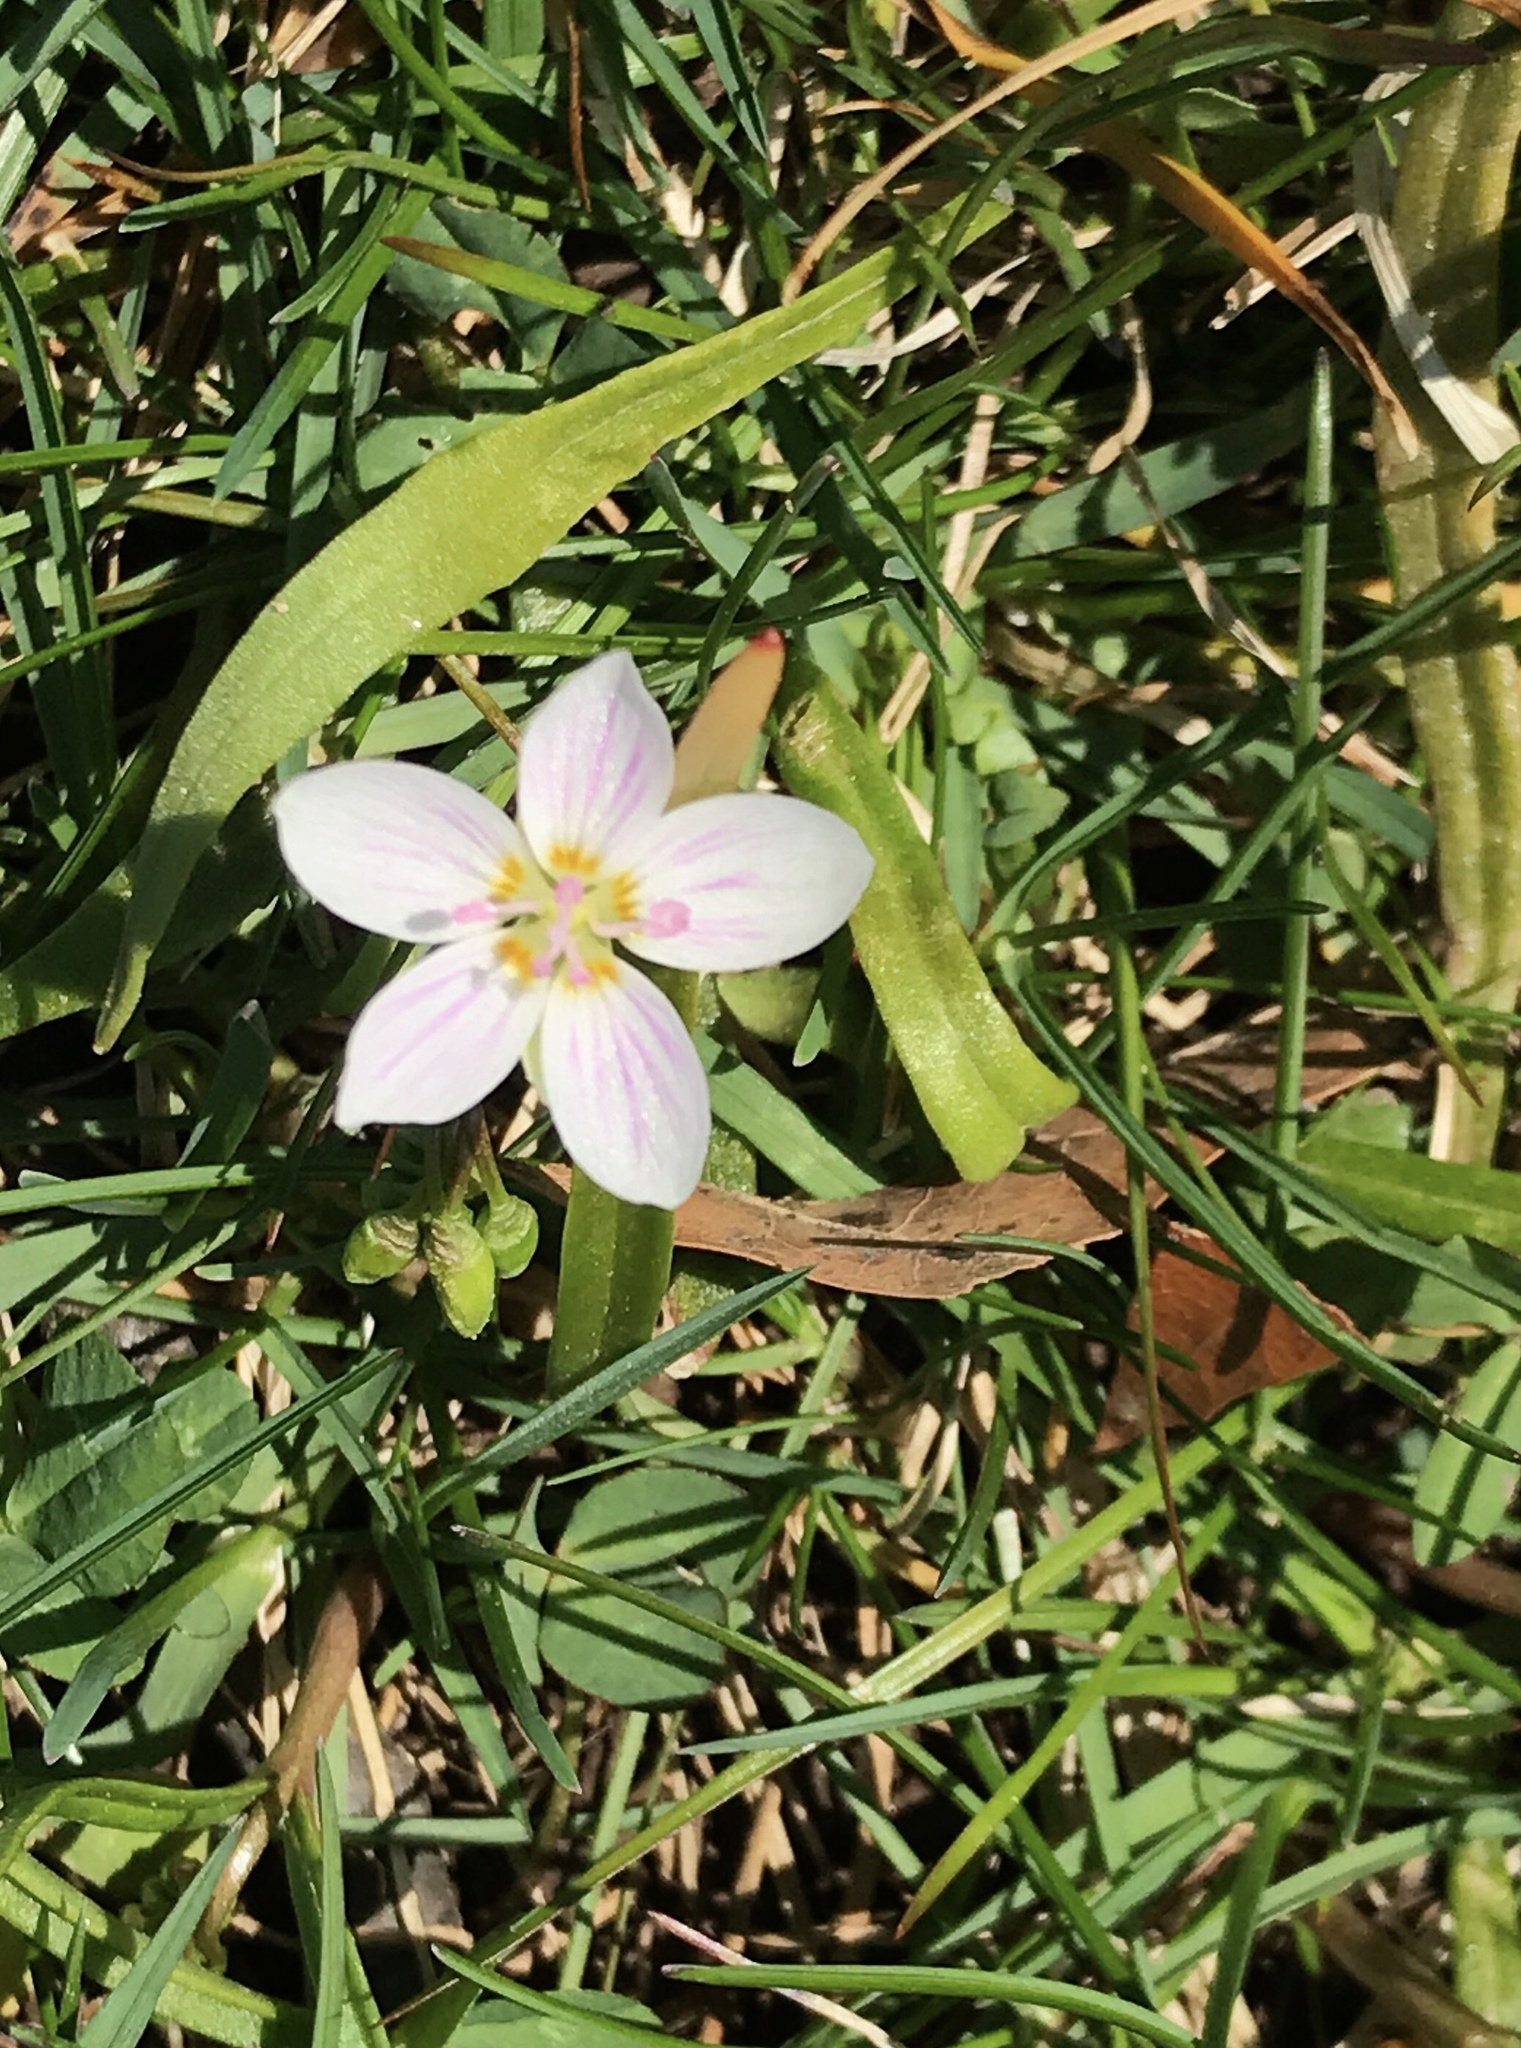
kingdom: Plantae
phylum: Tracheophyta
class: Magnoliopsida
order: Caryophyllales
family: Montiaceae
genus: Claytonia
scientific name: Claytonia virginica
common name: Virginia springbeauty
